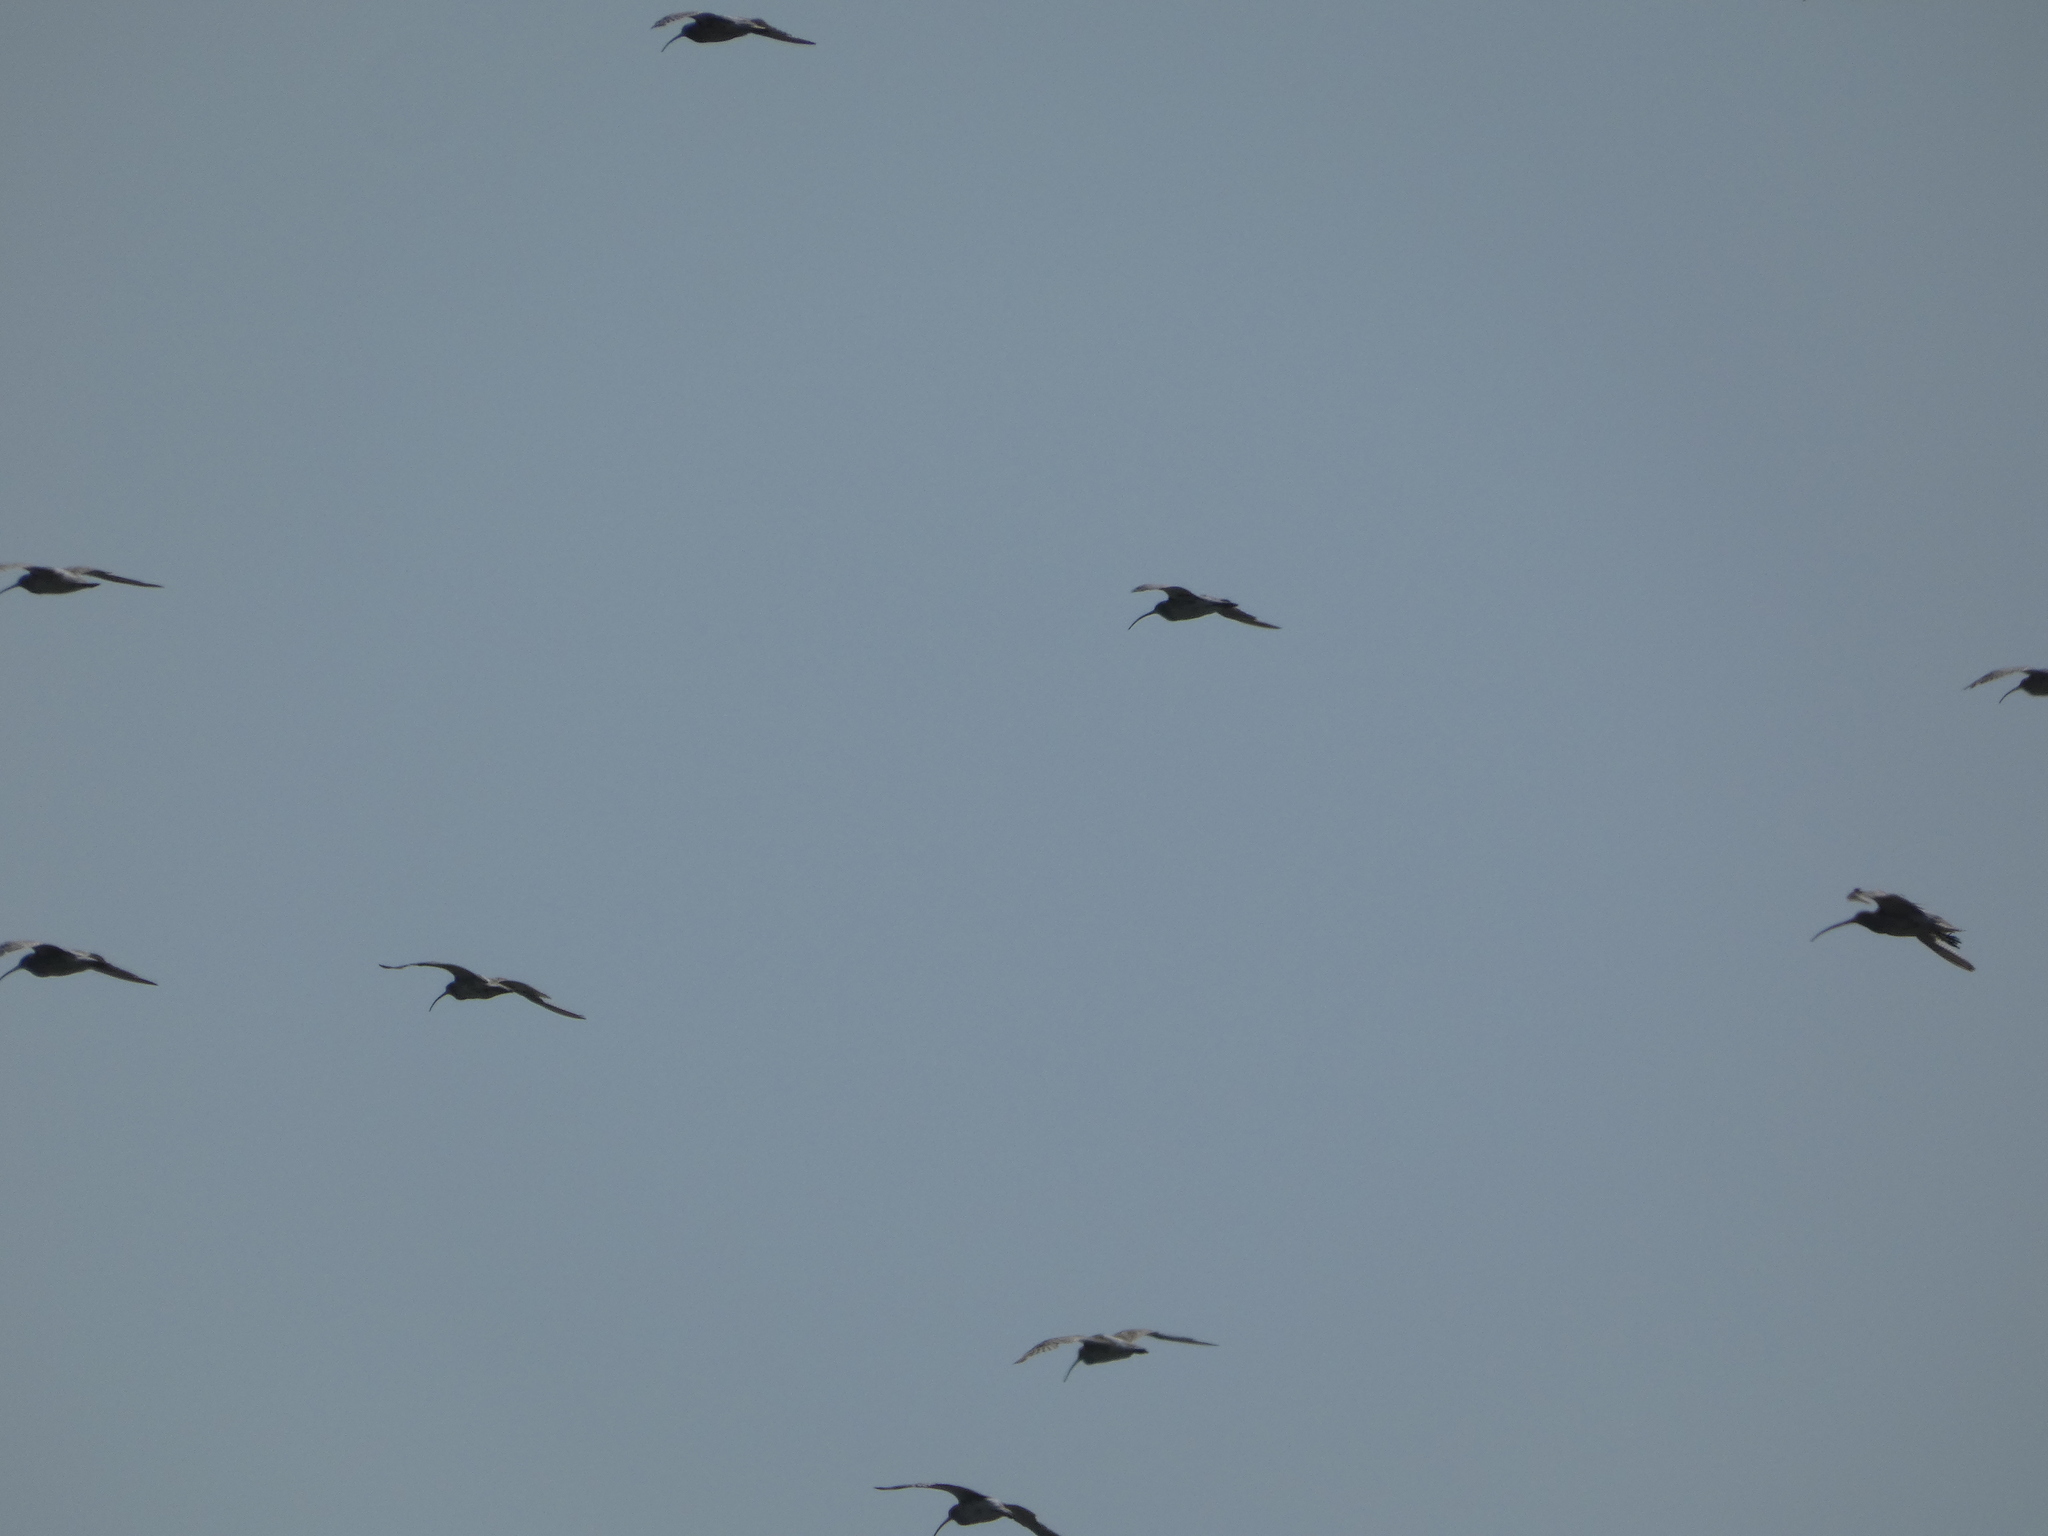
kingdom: Animalia
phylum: Chordata
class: Aves
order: Charadriiformes
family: Scolopacidae
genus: Numenius
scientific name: Numenius arquata
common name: Eurasian curlew
